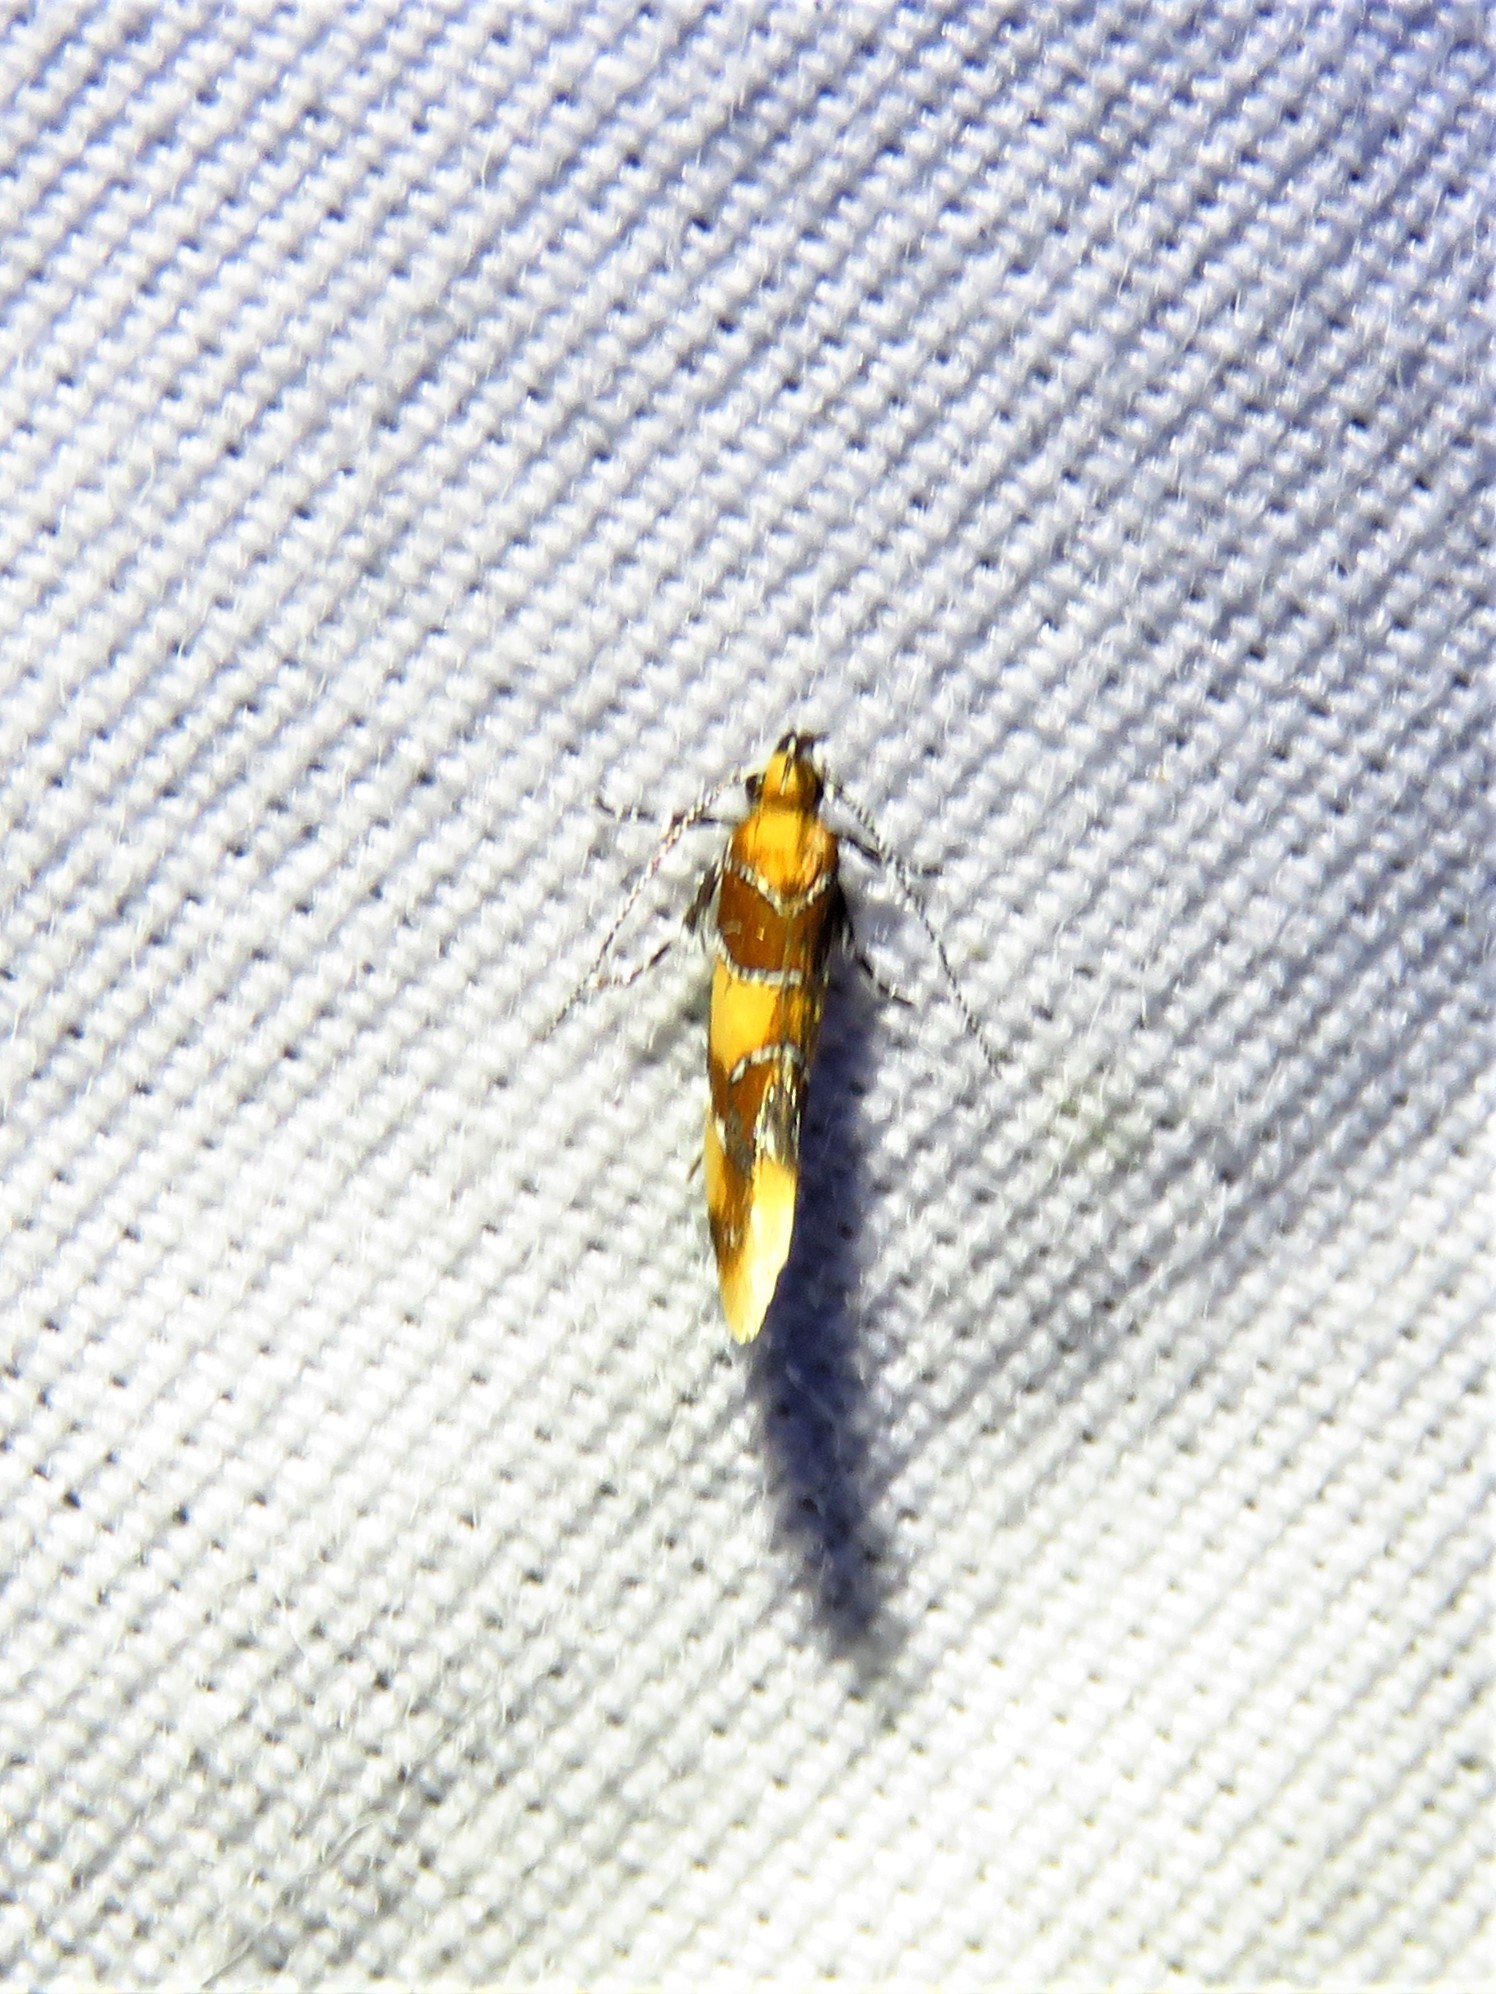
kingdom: Animalia
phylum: Arthropoda
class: Insecta
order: Lepidoptera
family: Oecophoridae
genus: Callima
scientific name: Callima argenticinctella
